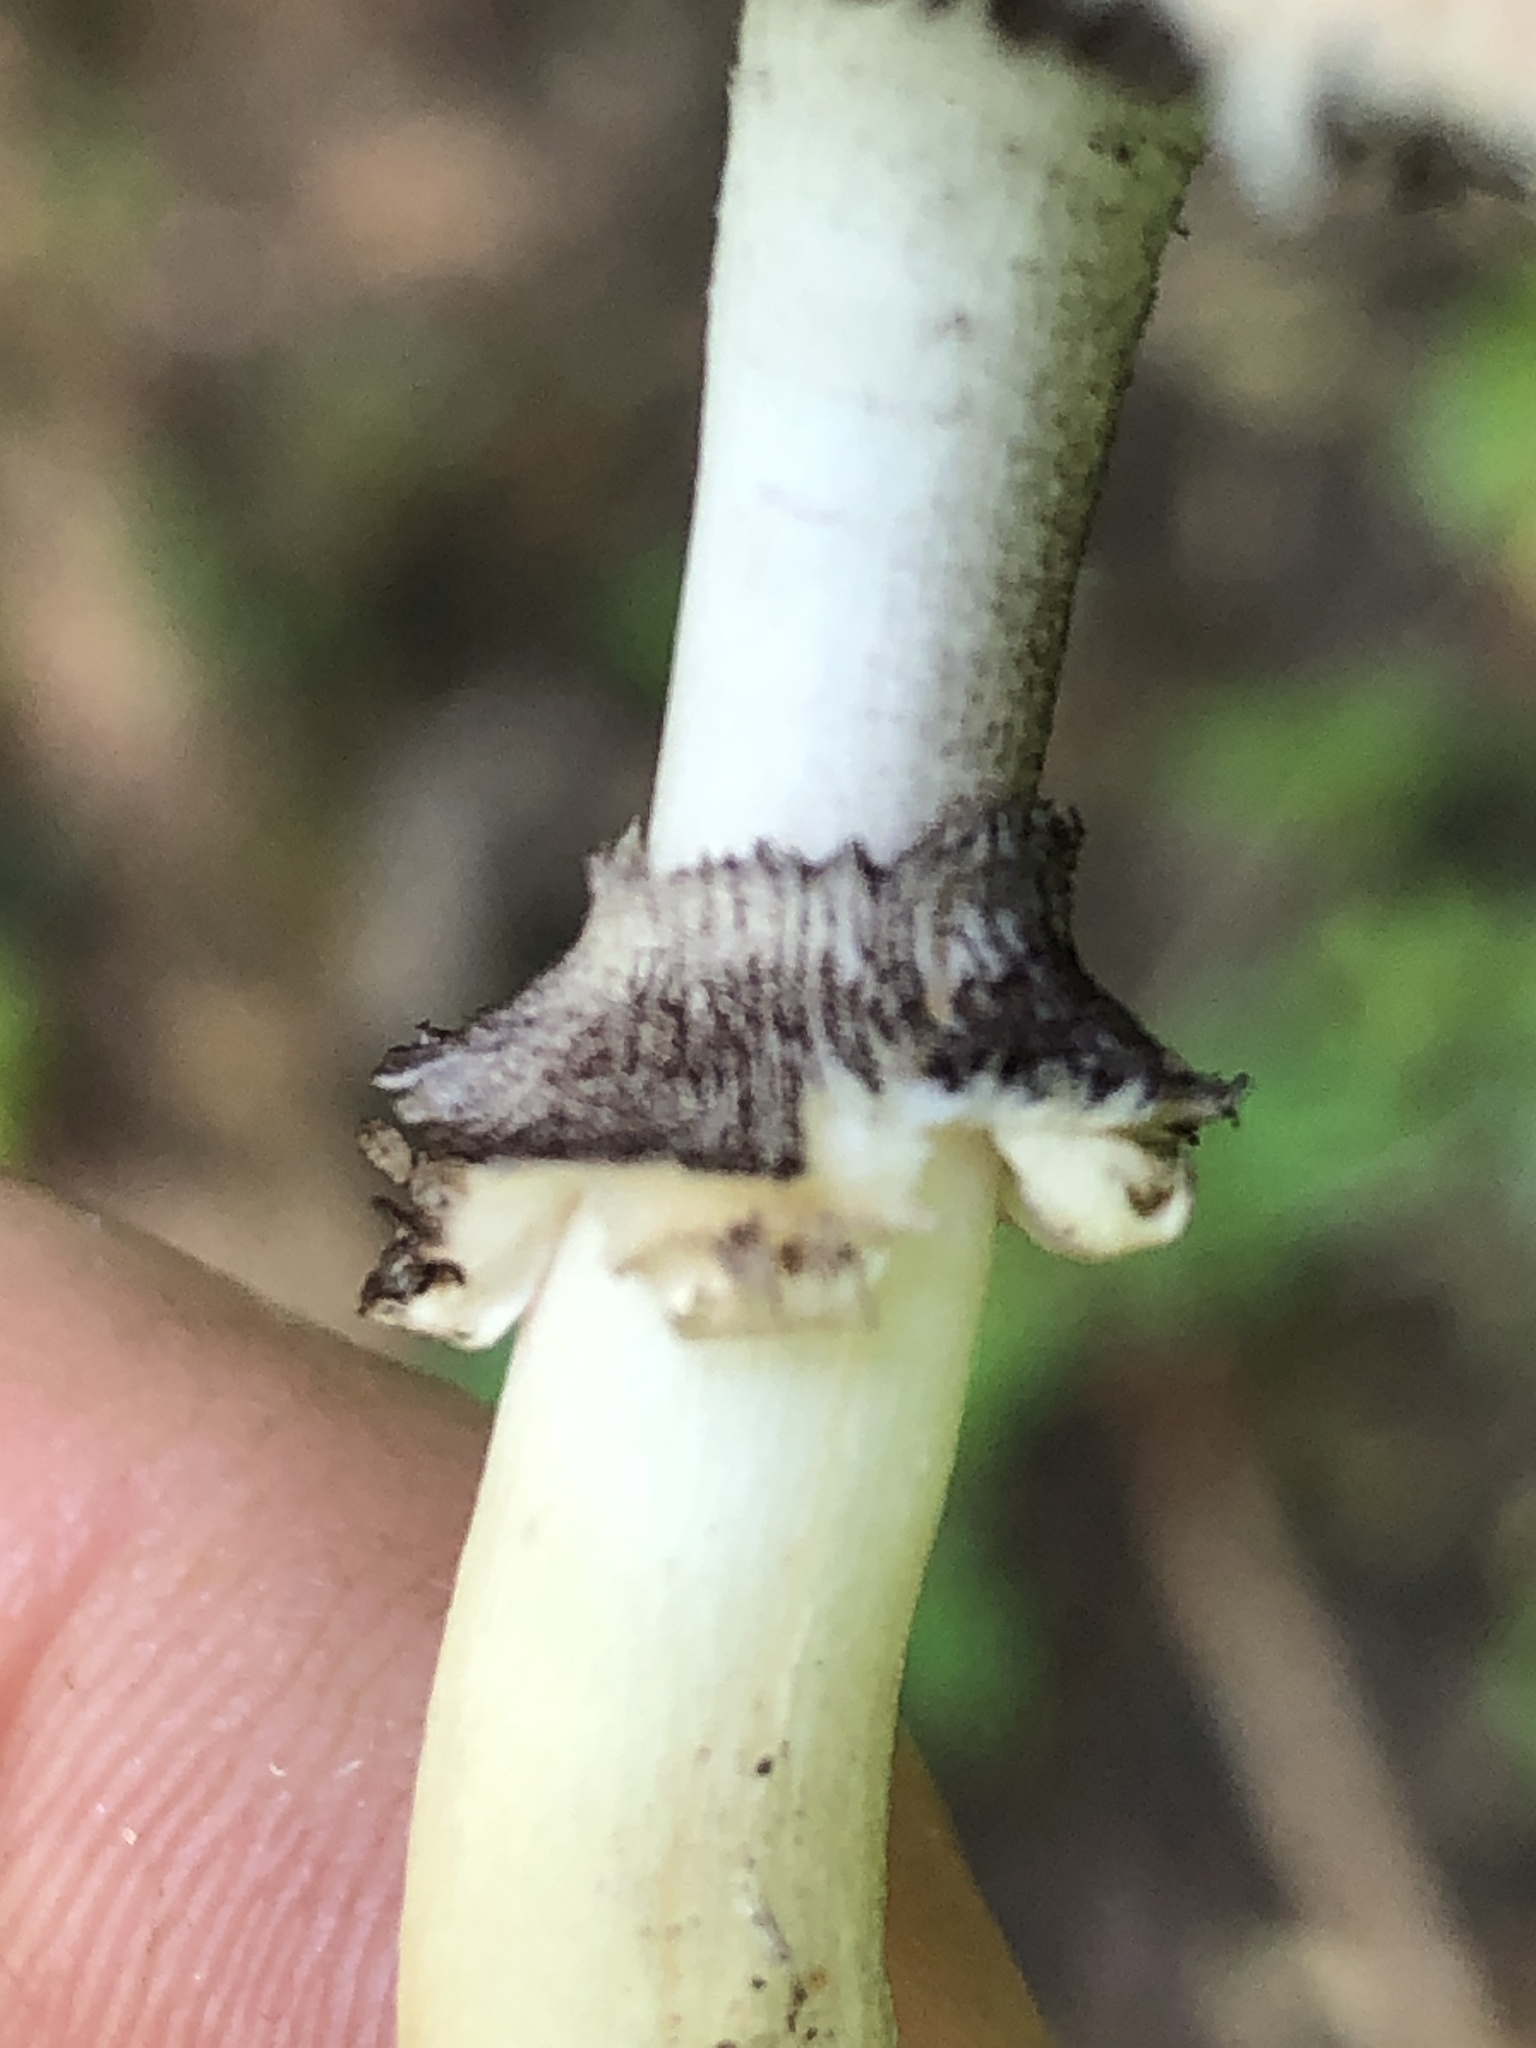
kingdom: Fungi
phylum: Basidiomycota
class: Agaricomycetes
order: Agaricales
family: Strophariaceae
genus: Stropharia
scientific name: Stropharia rugosoannulata
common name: Wine roundhead
